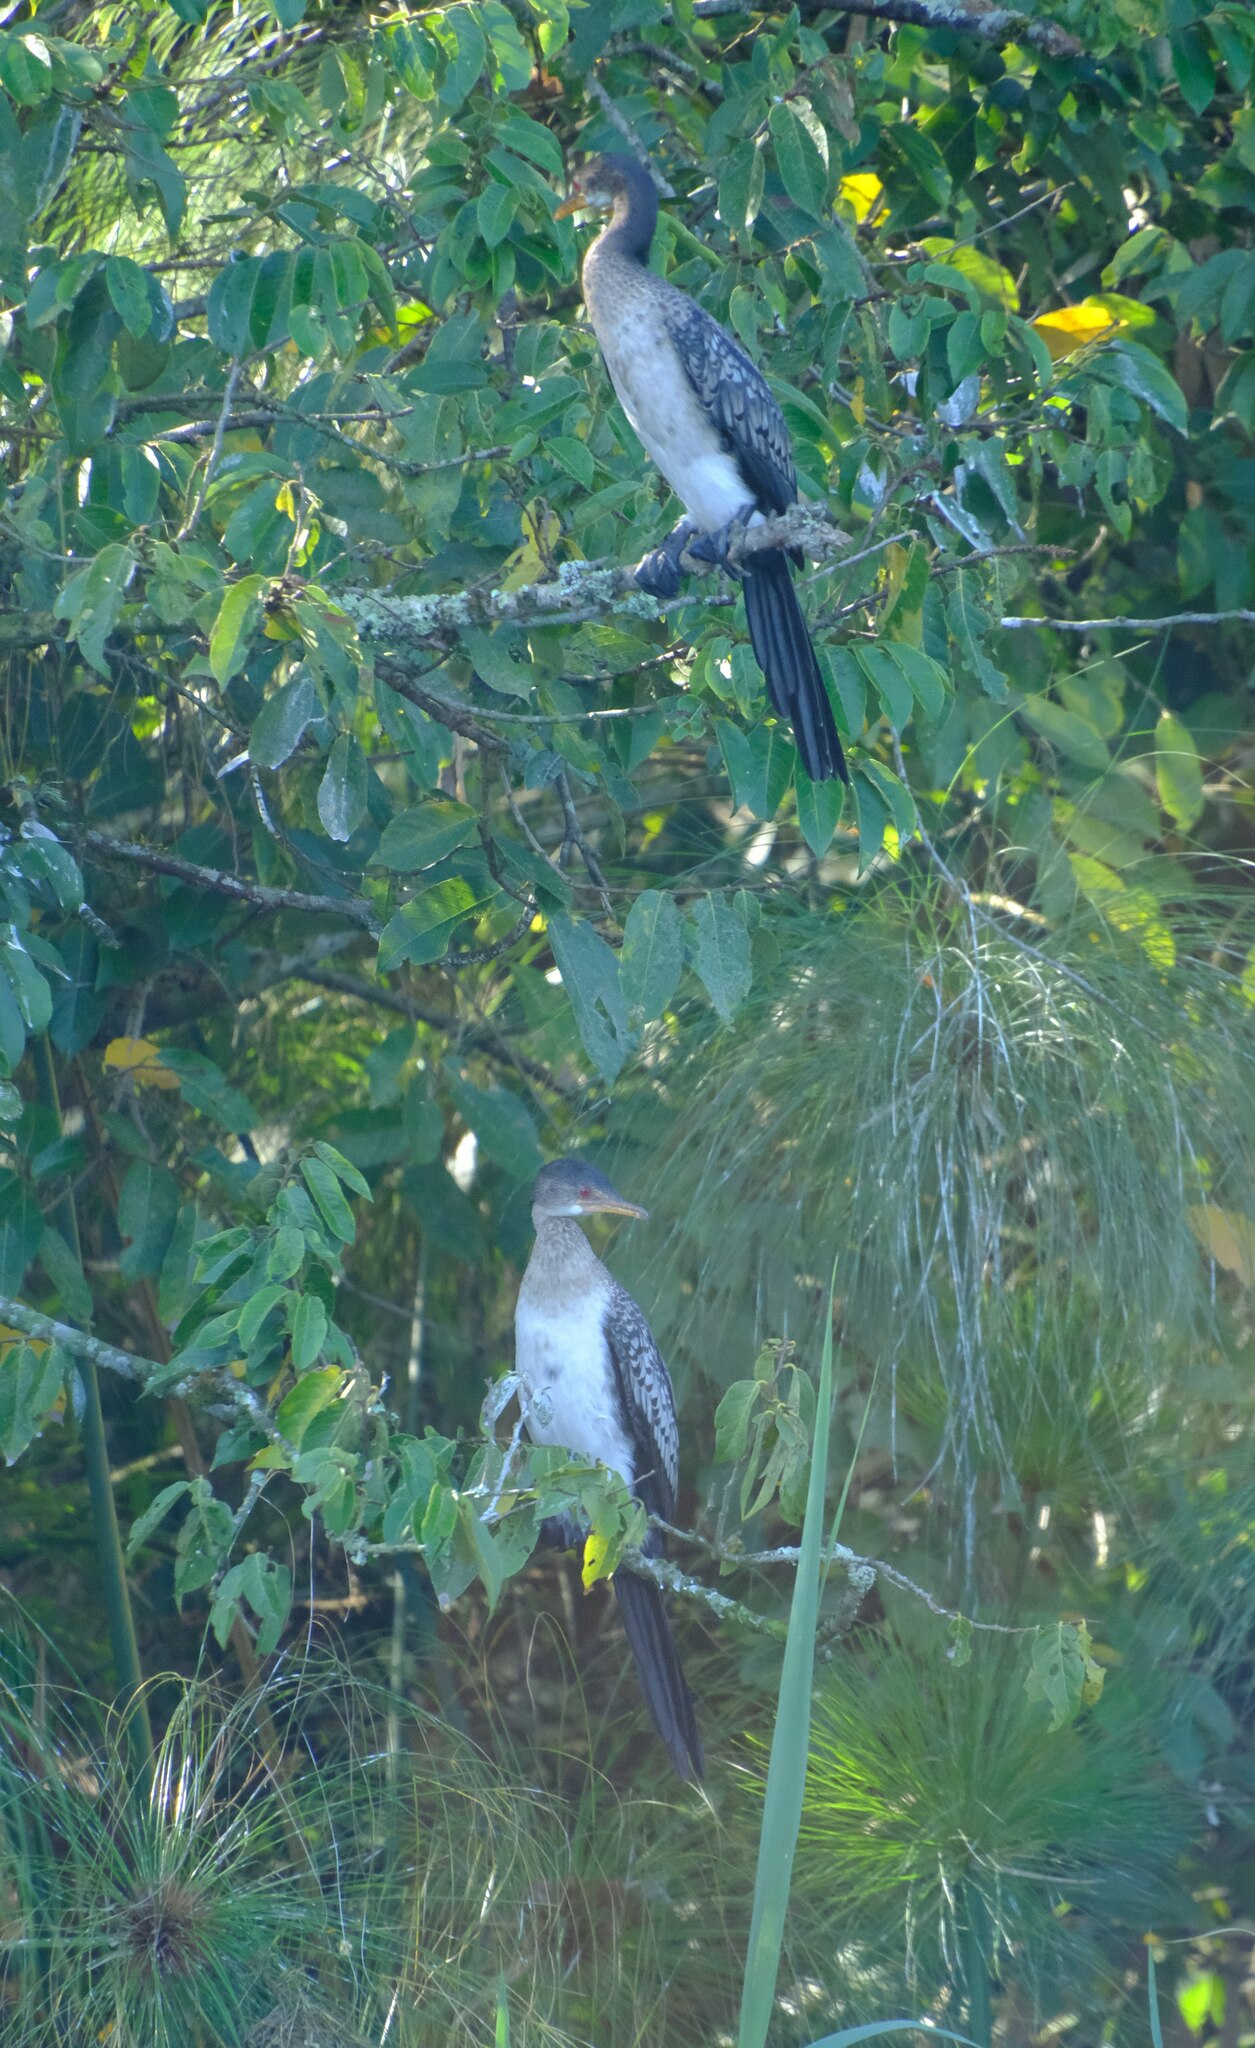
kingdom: Animalia
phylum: Chordata
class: Aves
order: Suliformes
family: Phalacrocoracidae
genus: Microcarbo
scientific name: Microcarbo africanus
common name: Long-tailed cormorant
